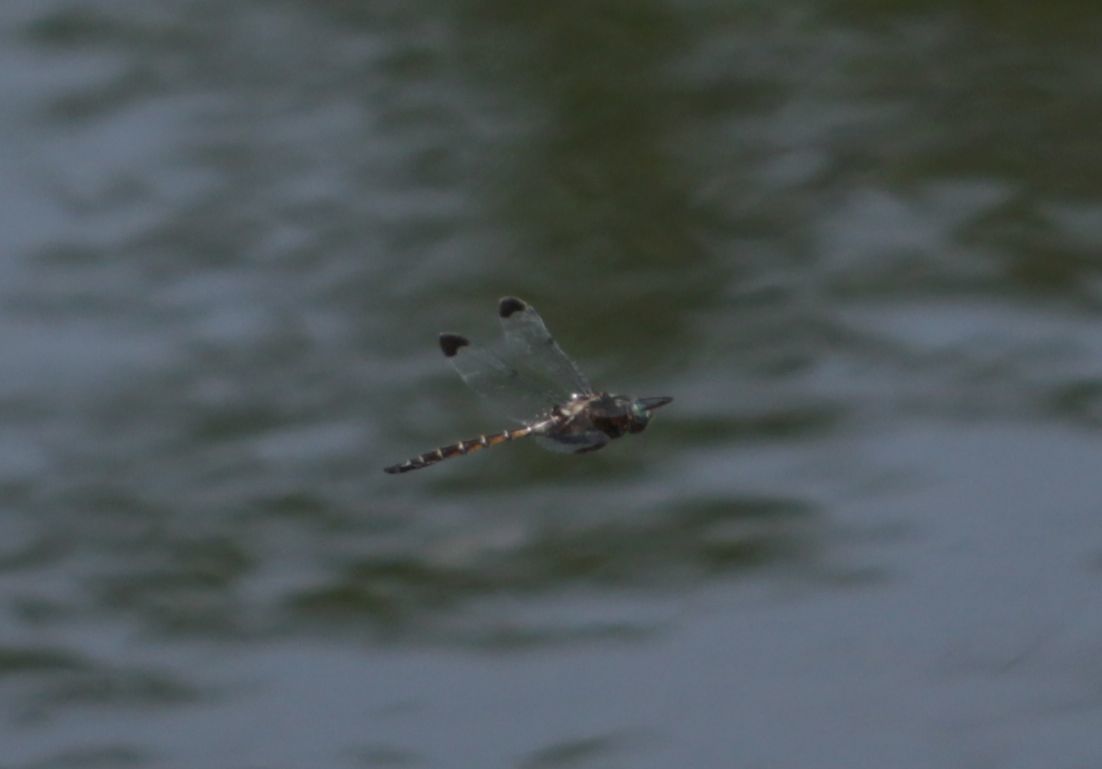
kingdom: Animalia
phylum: Arthropoda
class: Insecta
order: Odonata
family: Corduliidae
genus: Epitheca
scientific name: Epitheca princeps
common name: Prince baskettail
